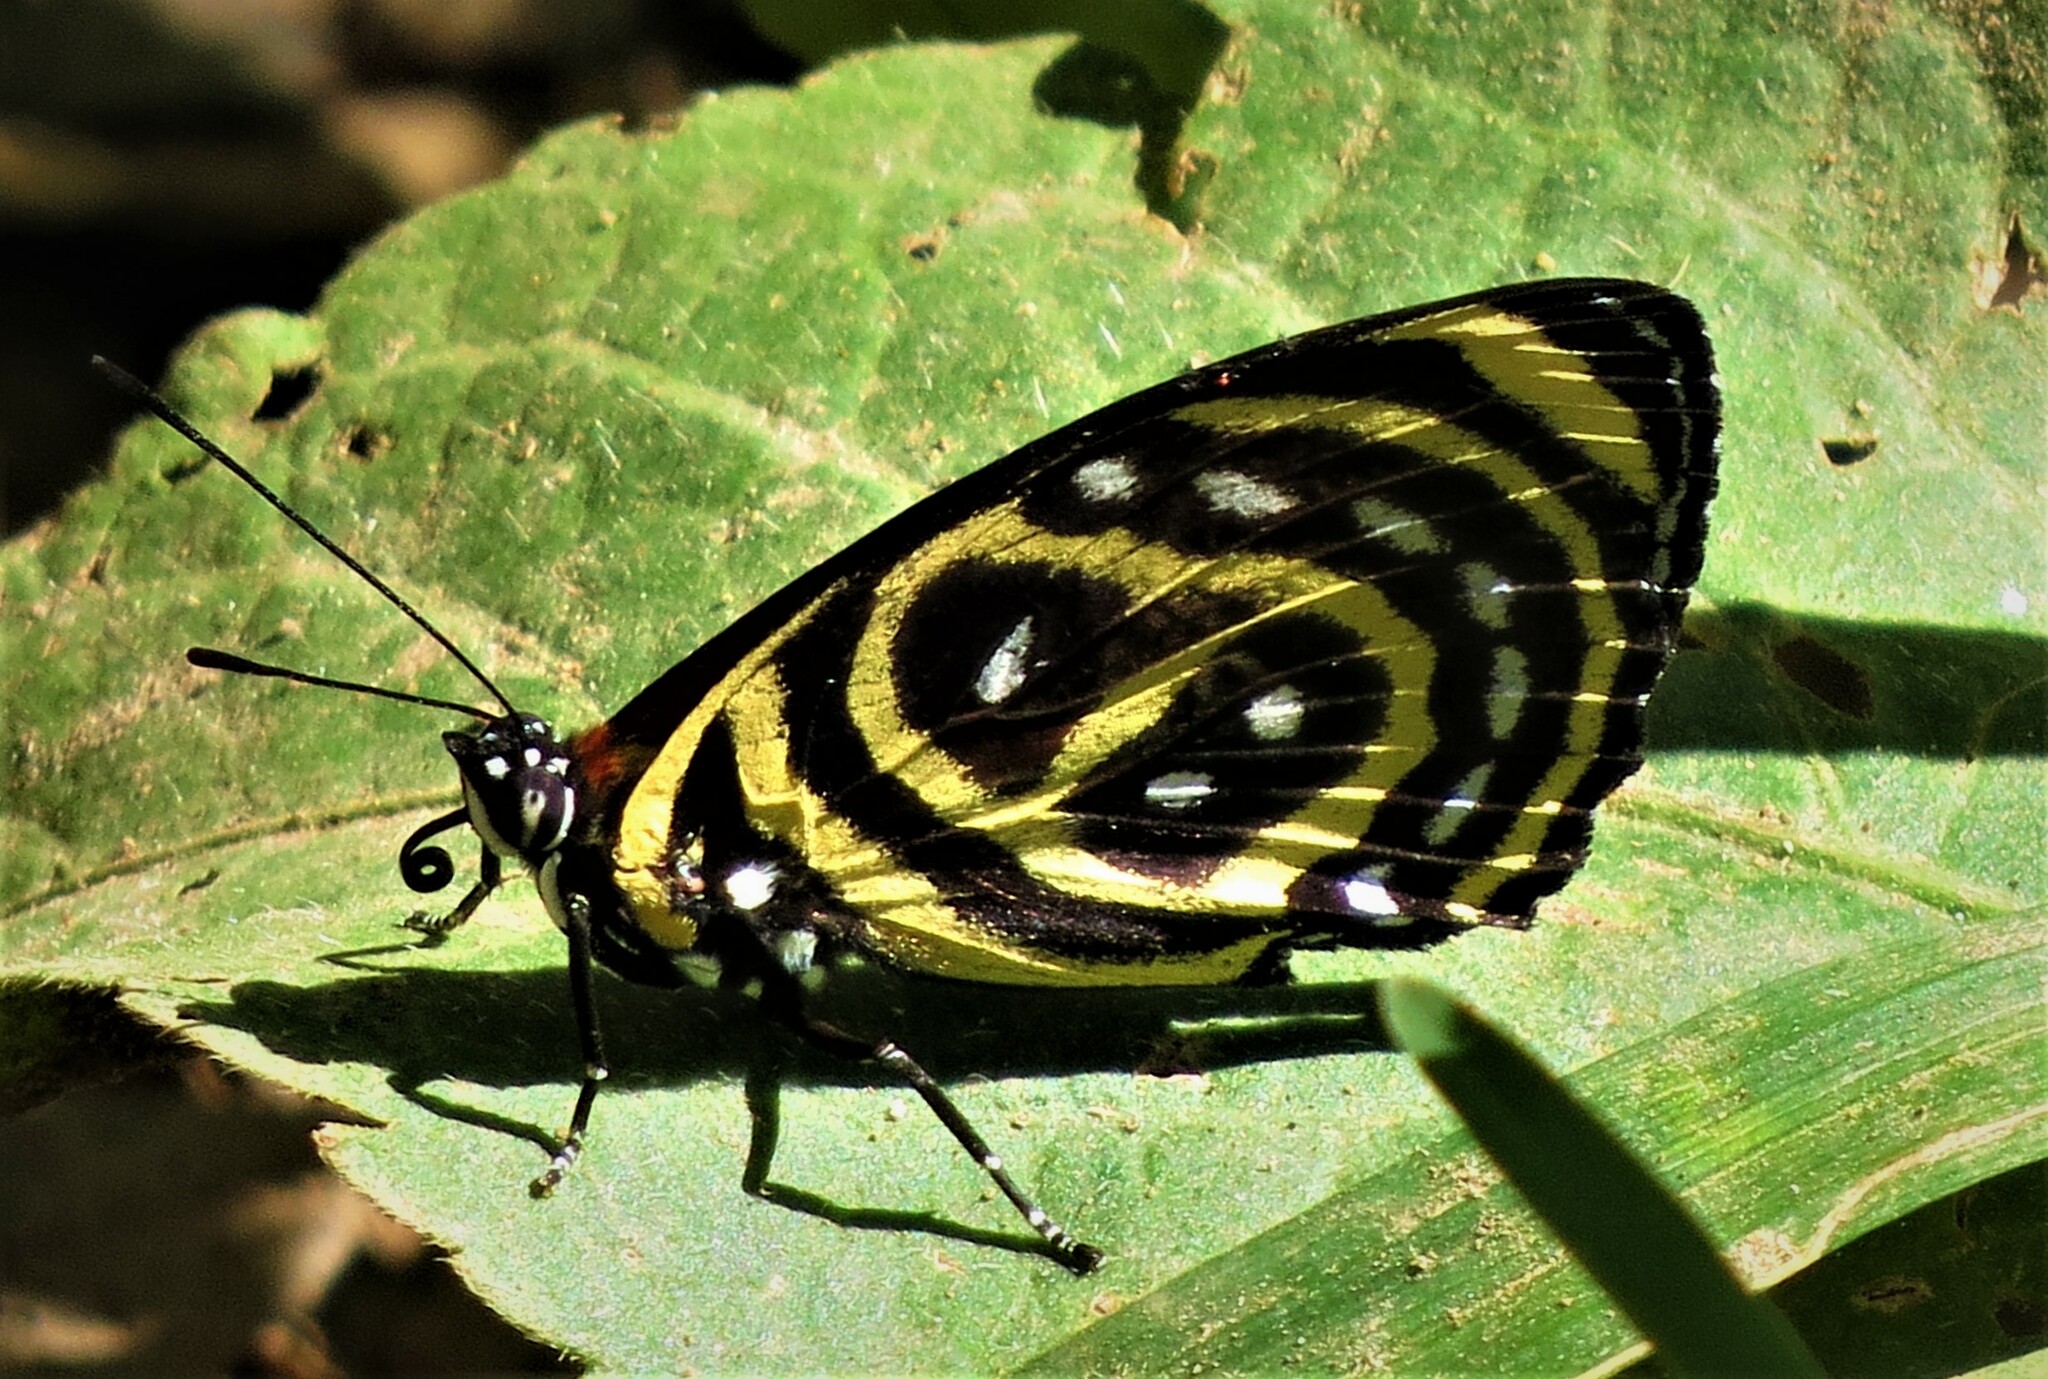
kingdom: Animalia
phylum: Arthropoda
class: Insecta
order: Lepidoptera
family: Nymphalidae
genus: Catagramma
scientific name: Catagramma astarte
